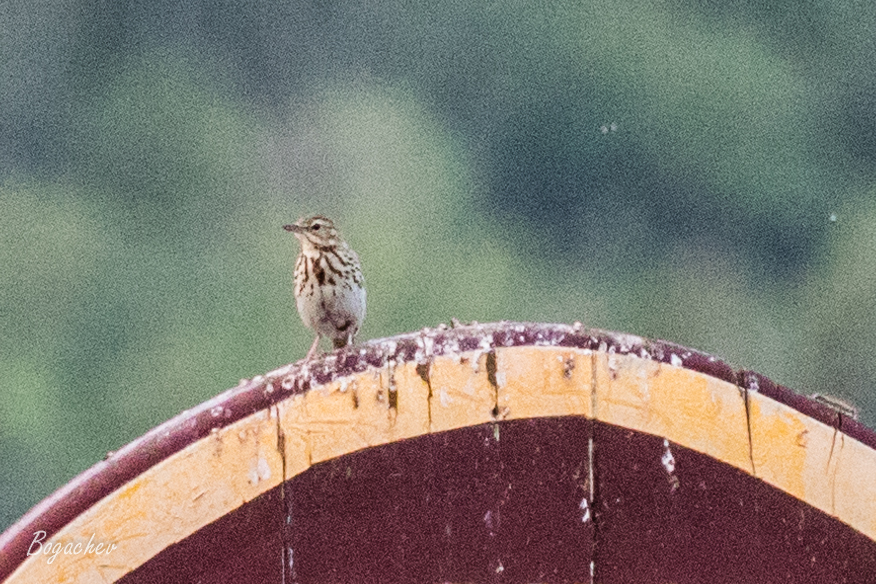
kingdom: Animalia
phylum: Chordata
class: Aves
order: Passeriformes
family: Motacillidae
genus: Anthus
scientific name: Anthus trivialis
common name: Tree pipit
